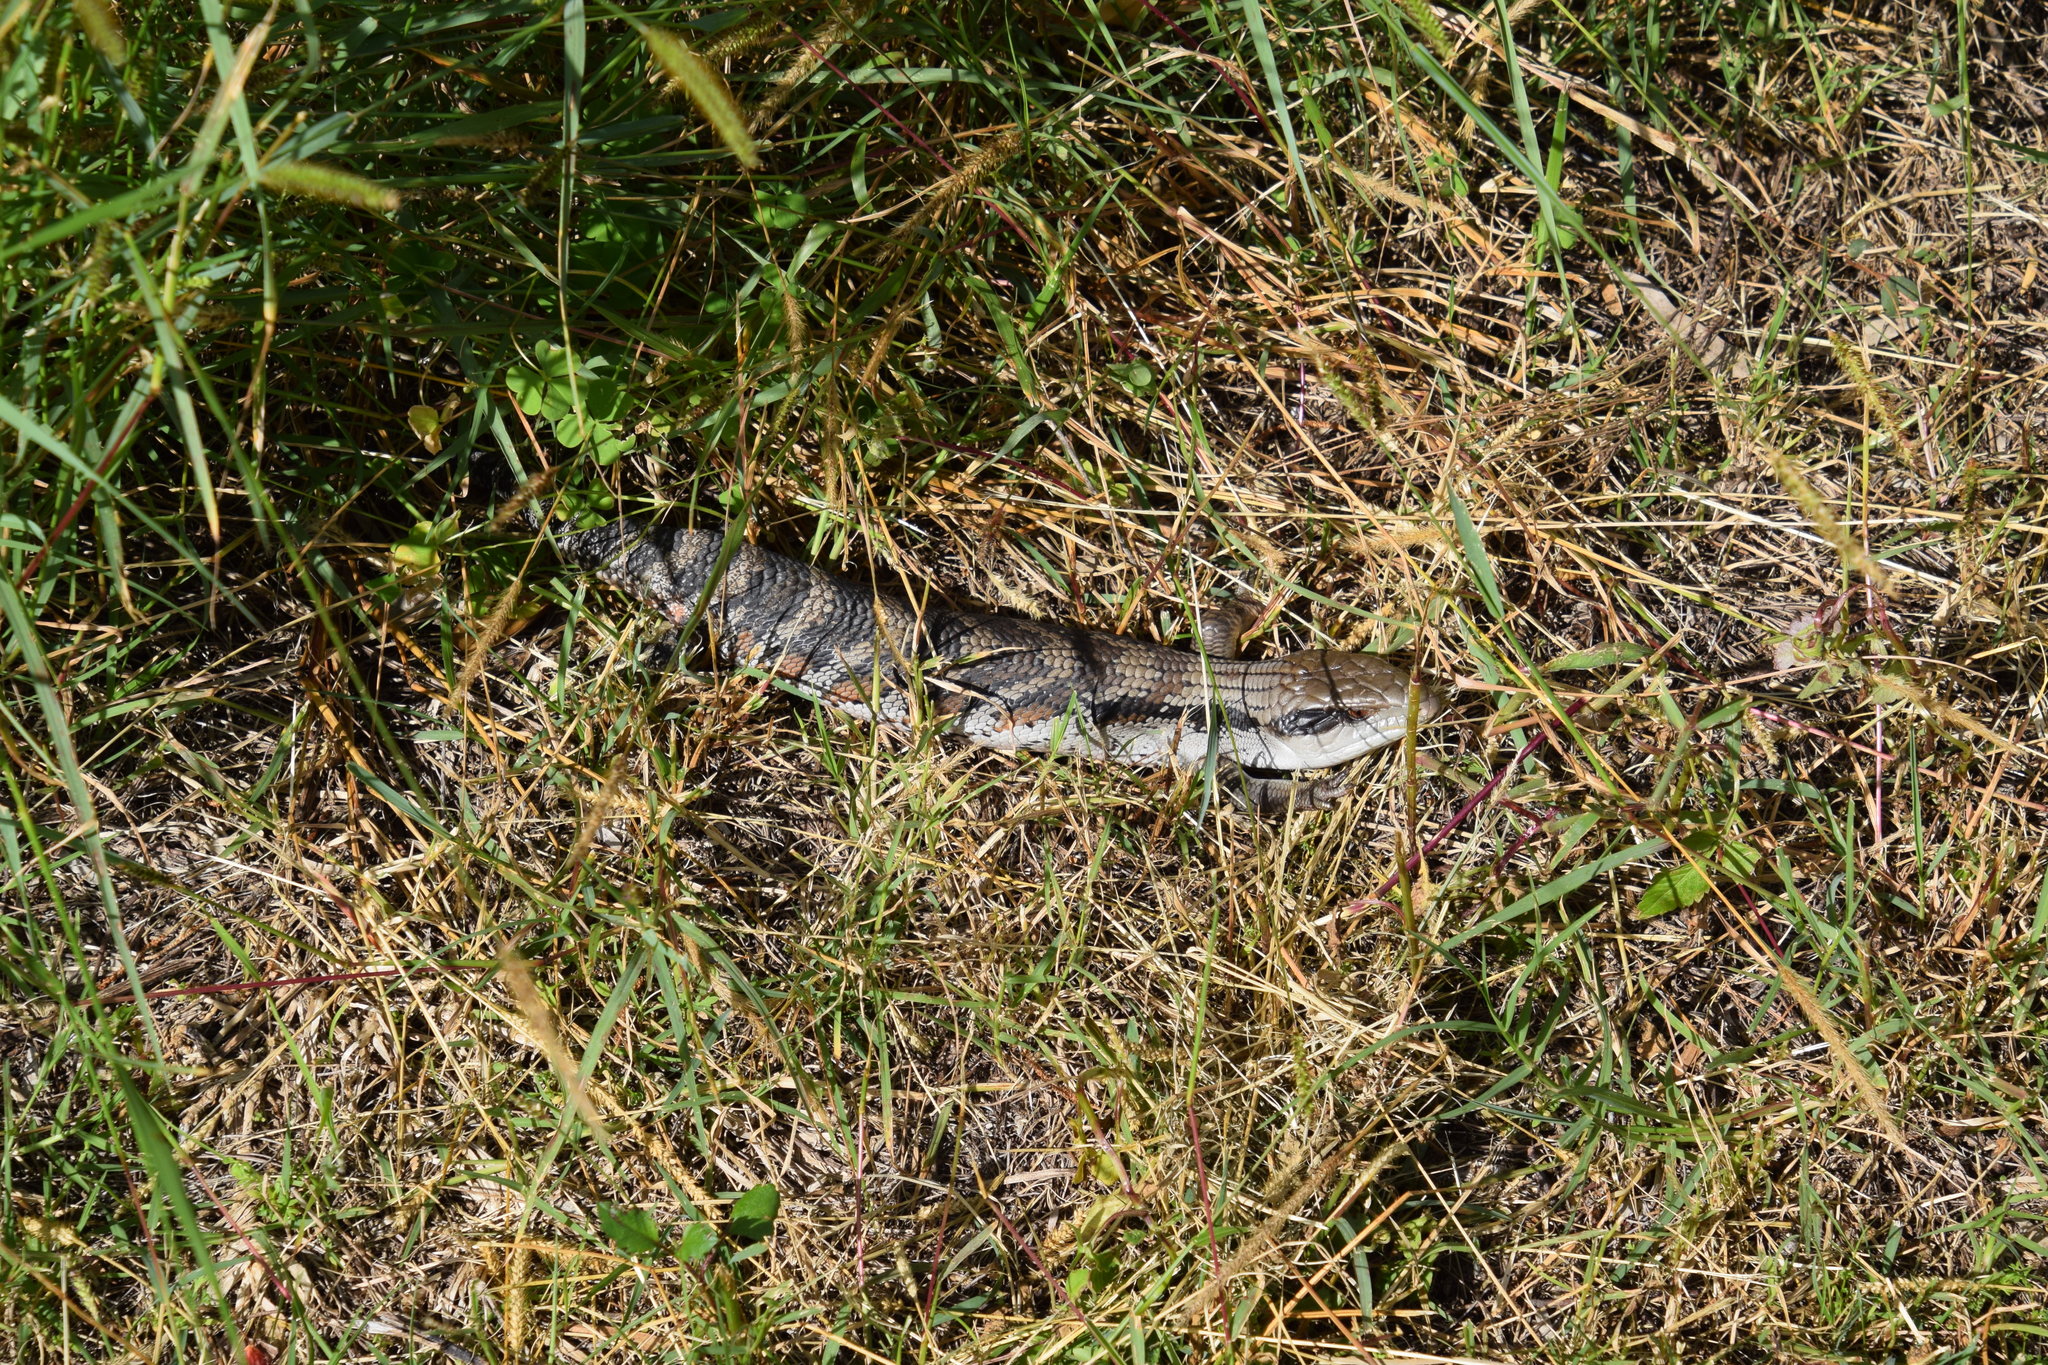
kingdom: Animalia
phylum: Chordata
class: Squamata
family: Scincidae
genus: Tiliqua
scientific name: Tiliqua scincoides
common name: Common bluetongue
